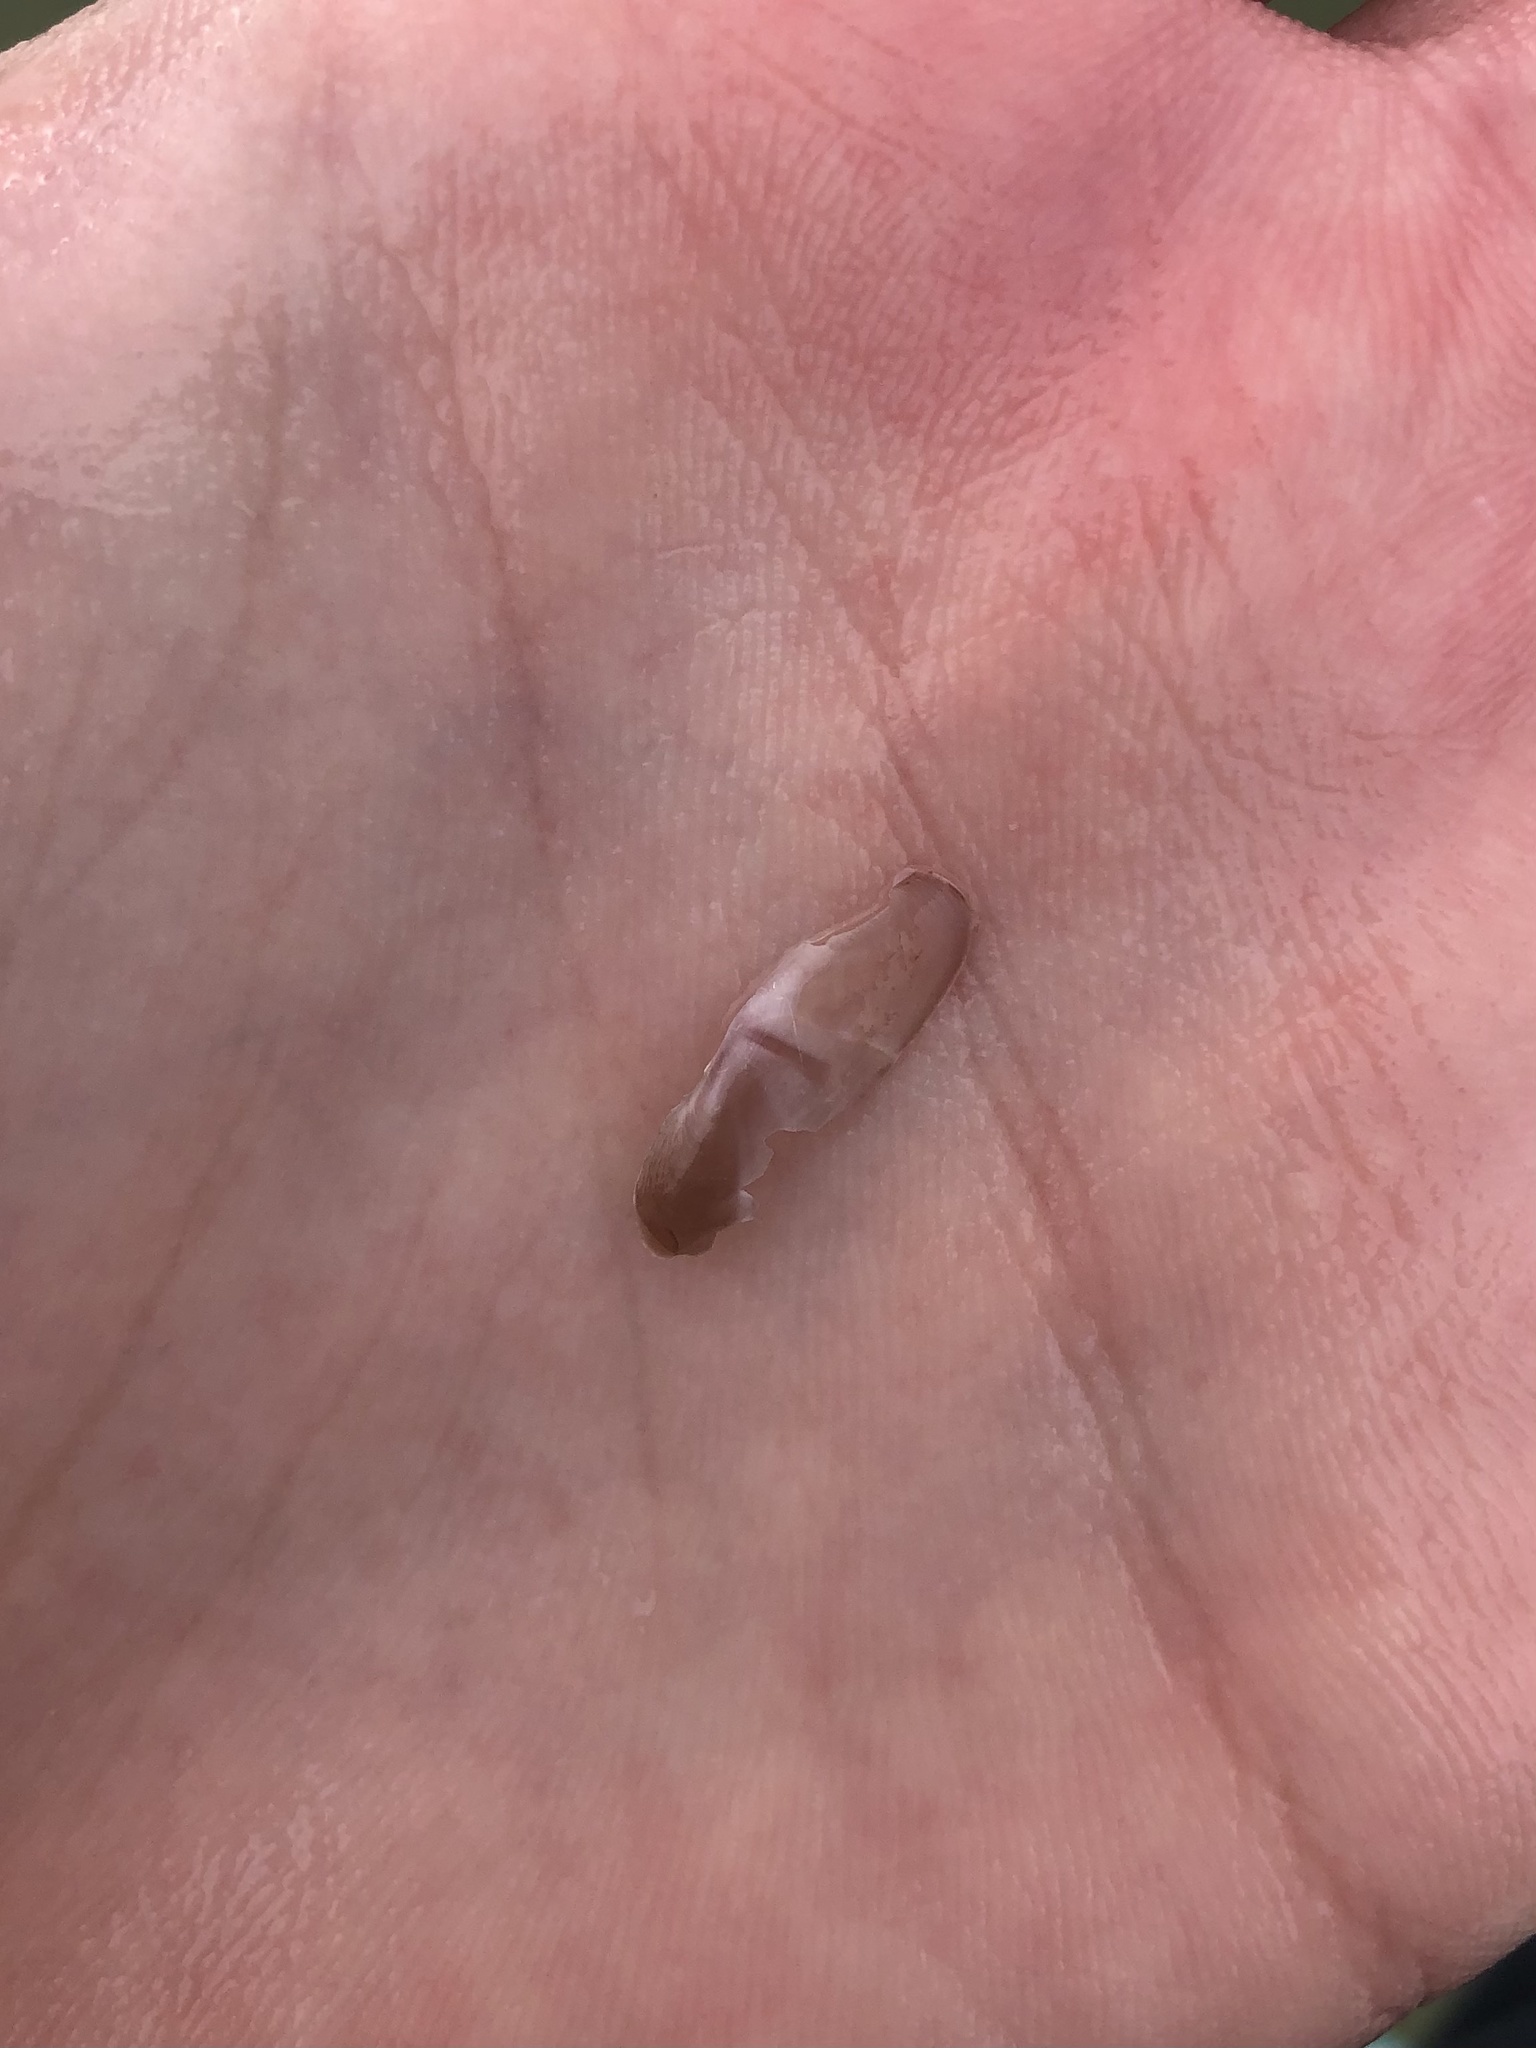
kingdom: Animalia
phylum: Mollusca
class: Bivalvia
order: Cardiida
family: Solecurtidae
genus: Tagelus
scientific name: Tagelus divisus
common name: Purplish tagelus
